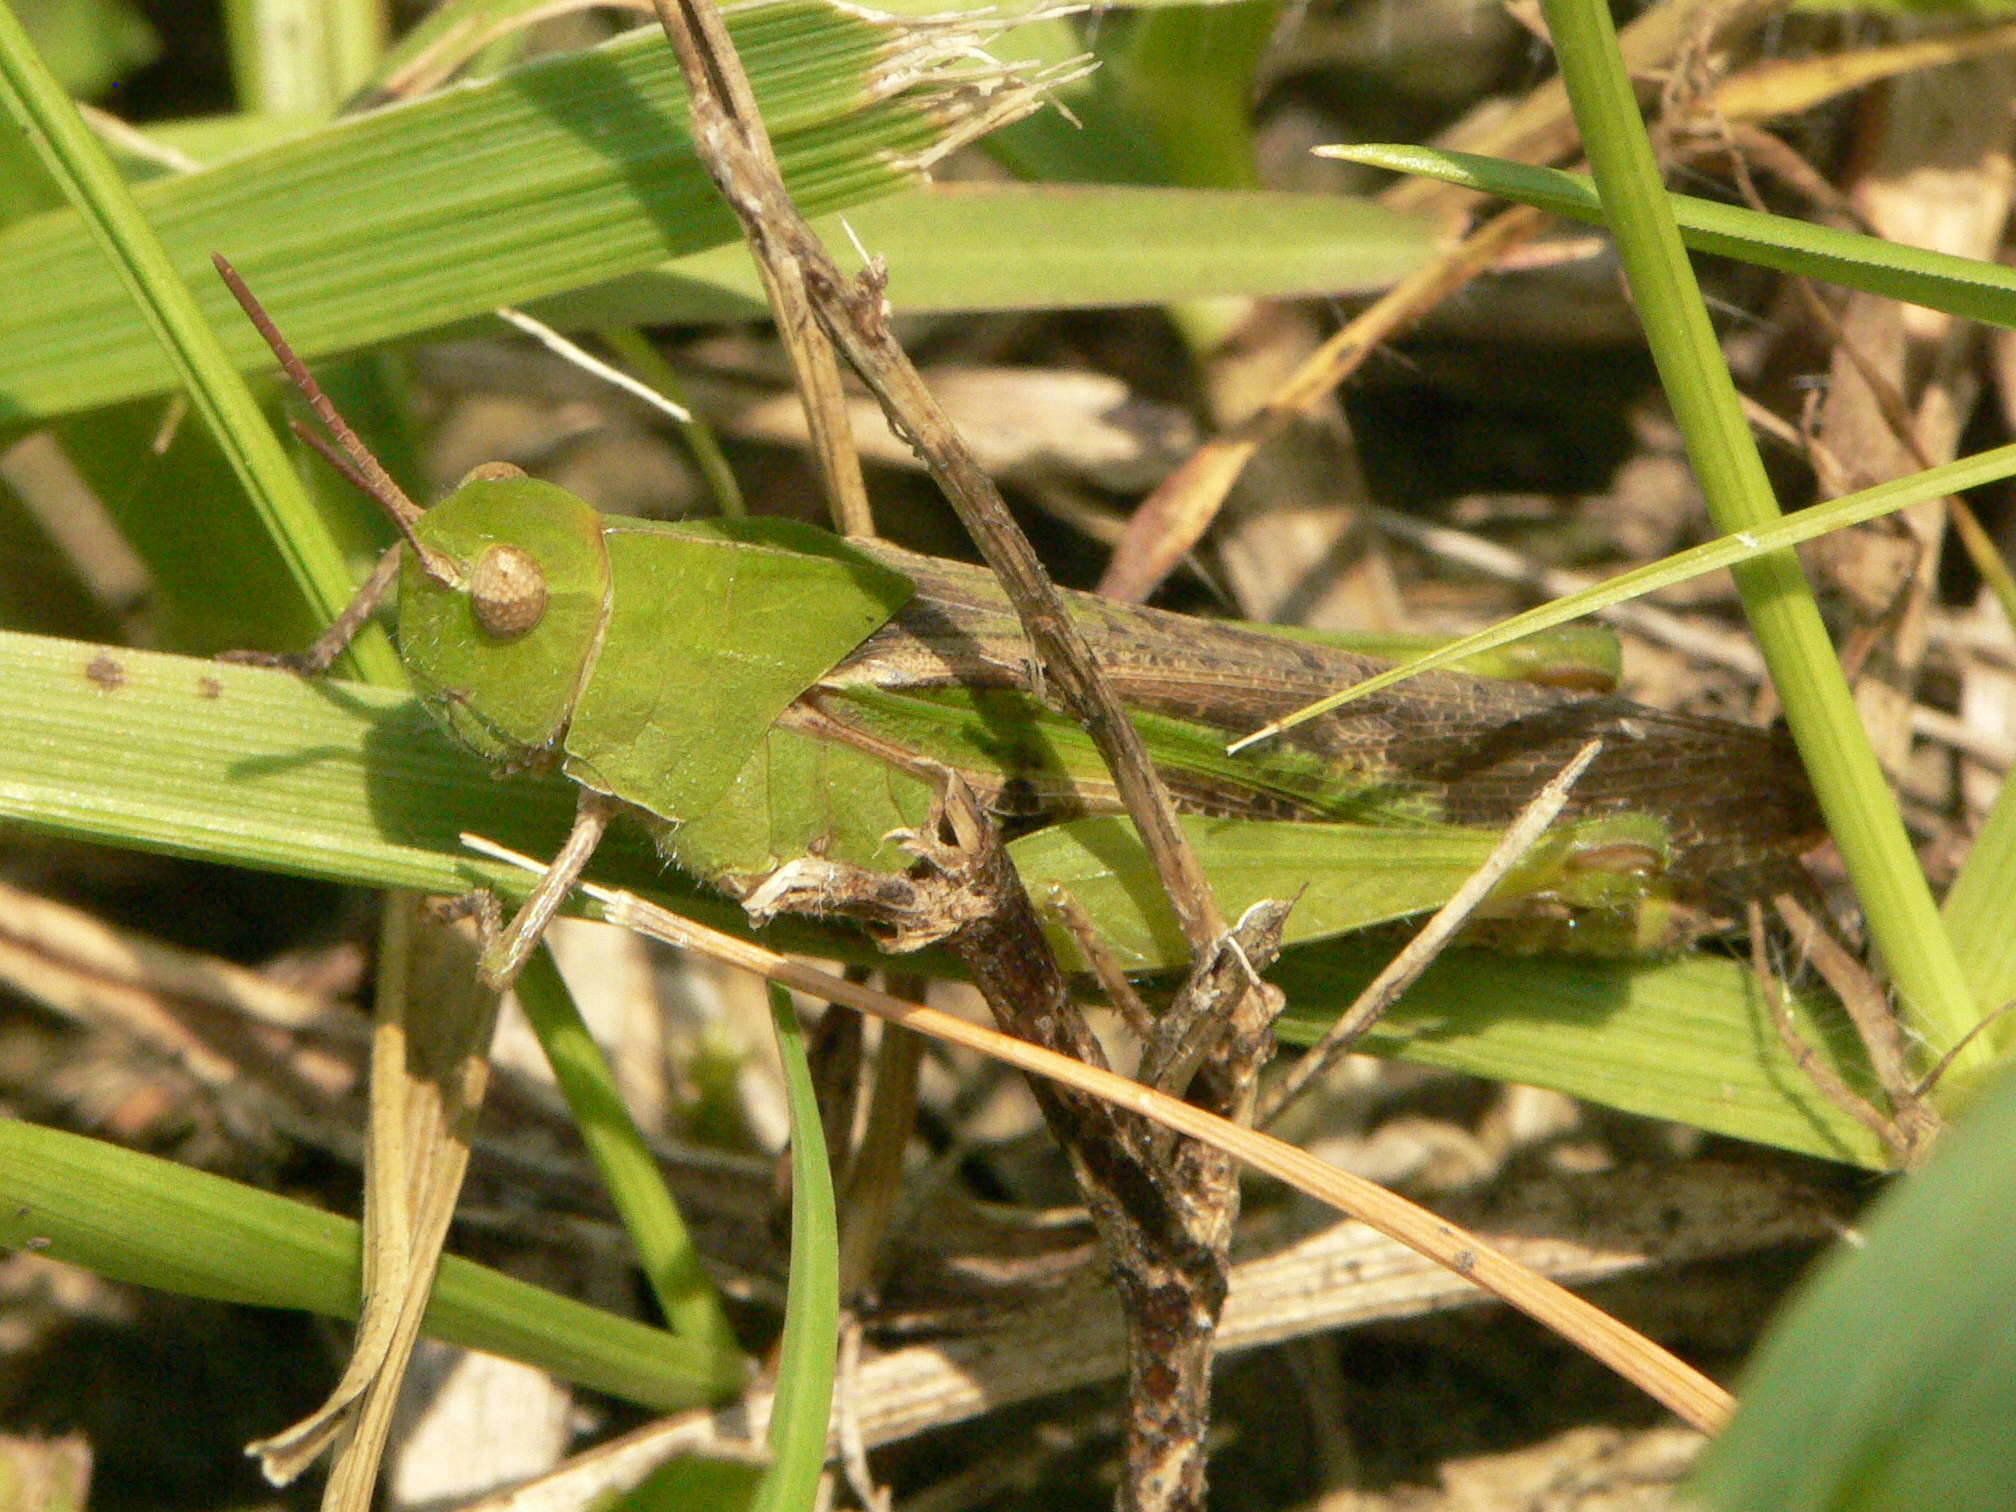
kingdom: Animalia
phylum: Arthropoda
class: Insecta
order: Orthoptera
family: Acrididae
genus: Chortophaga
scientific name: Chortophaga viridifasciata
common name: Green-striped grasshopper
